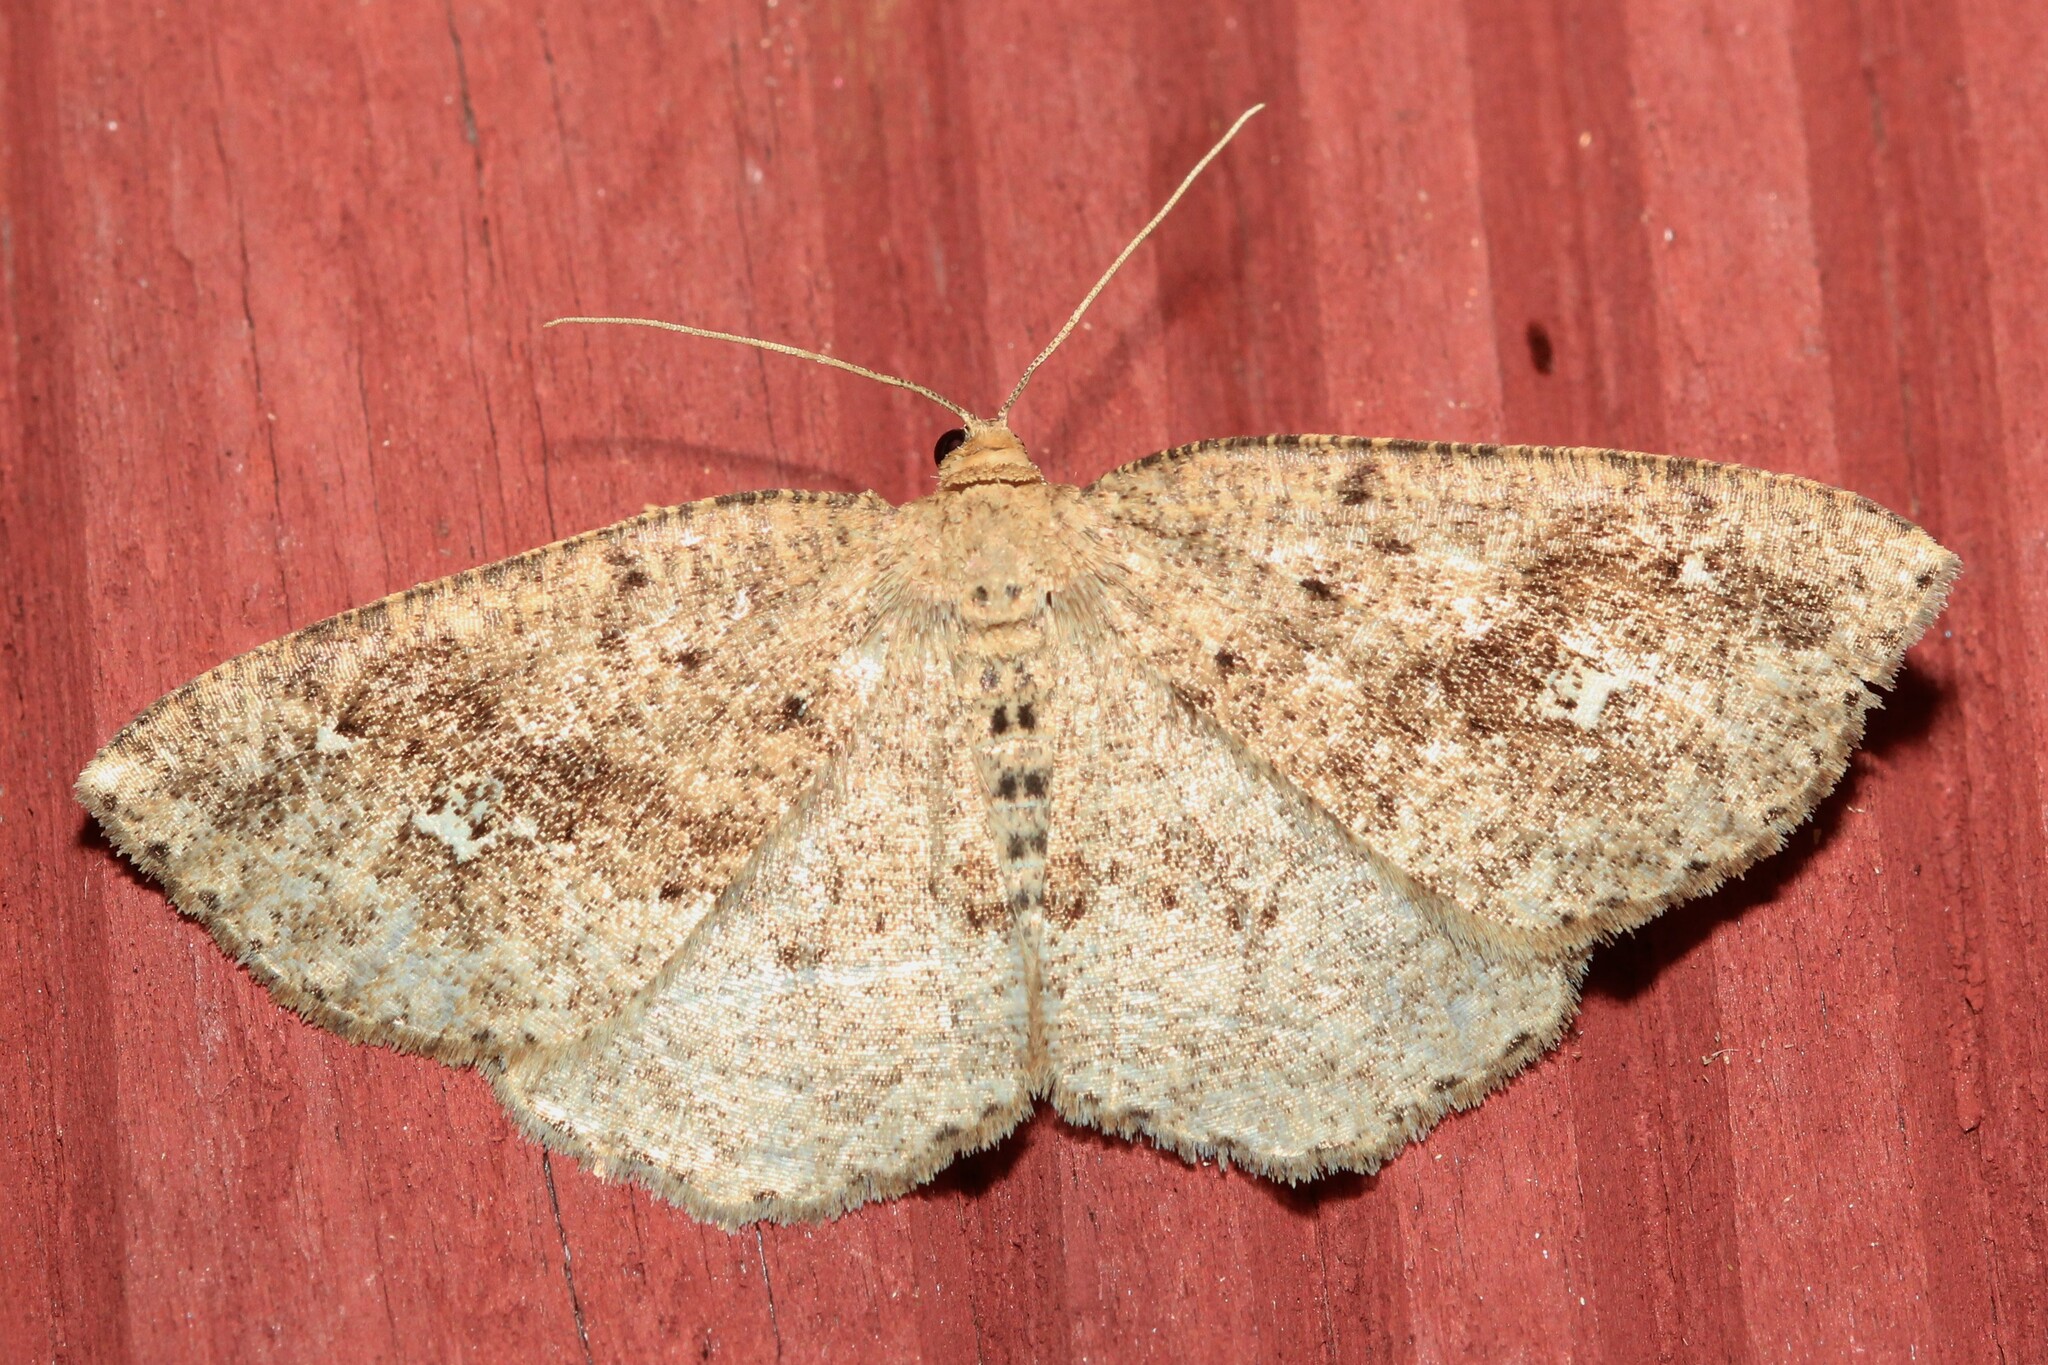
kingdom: Animalia
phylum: Arthropoda
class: Insecta
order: Lepidoptera
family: Geometridae
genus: Homochlodes
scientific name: Homochlodes fritillaria
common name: Pale homochlodes
